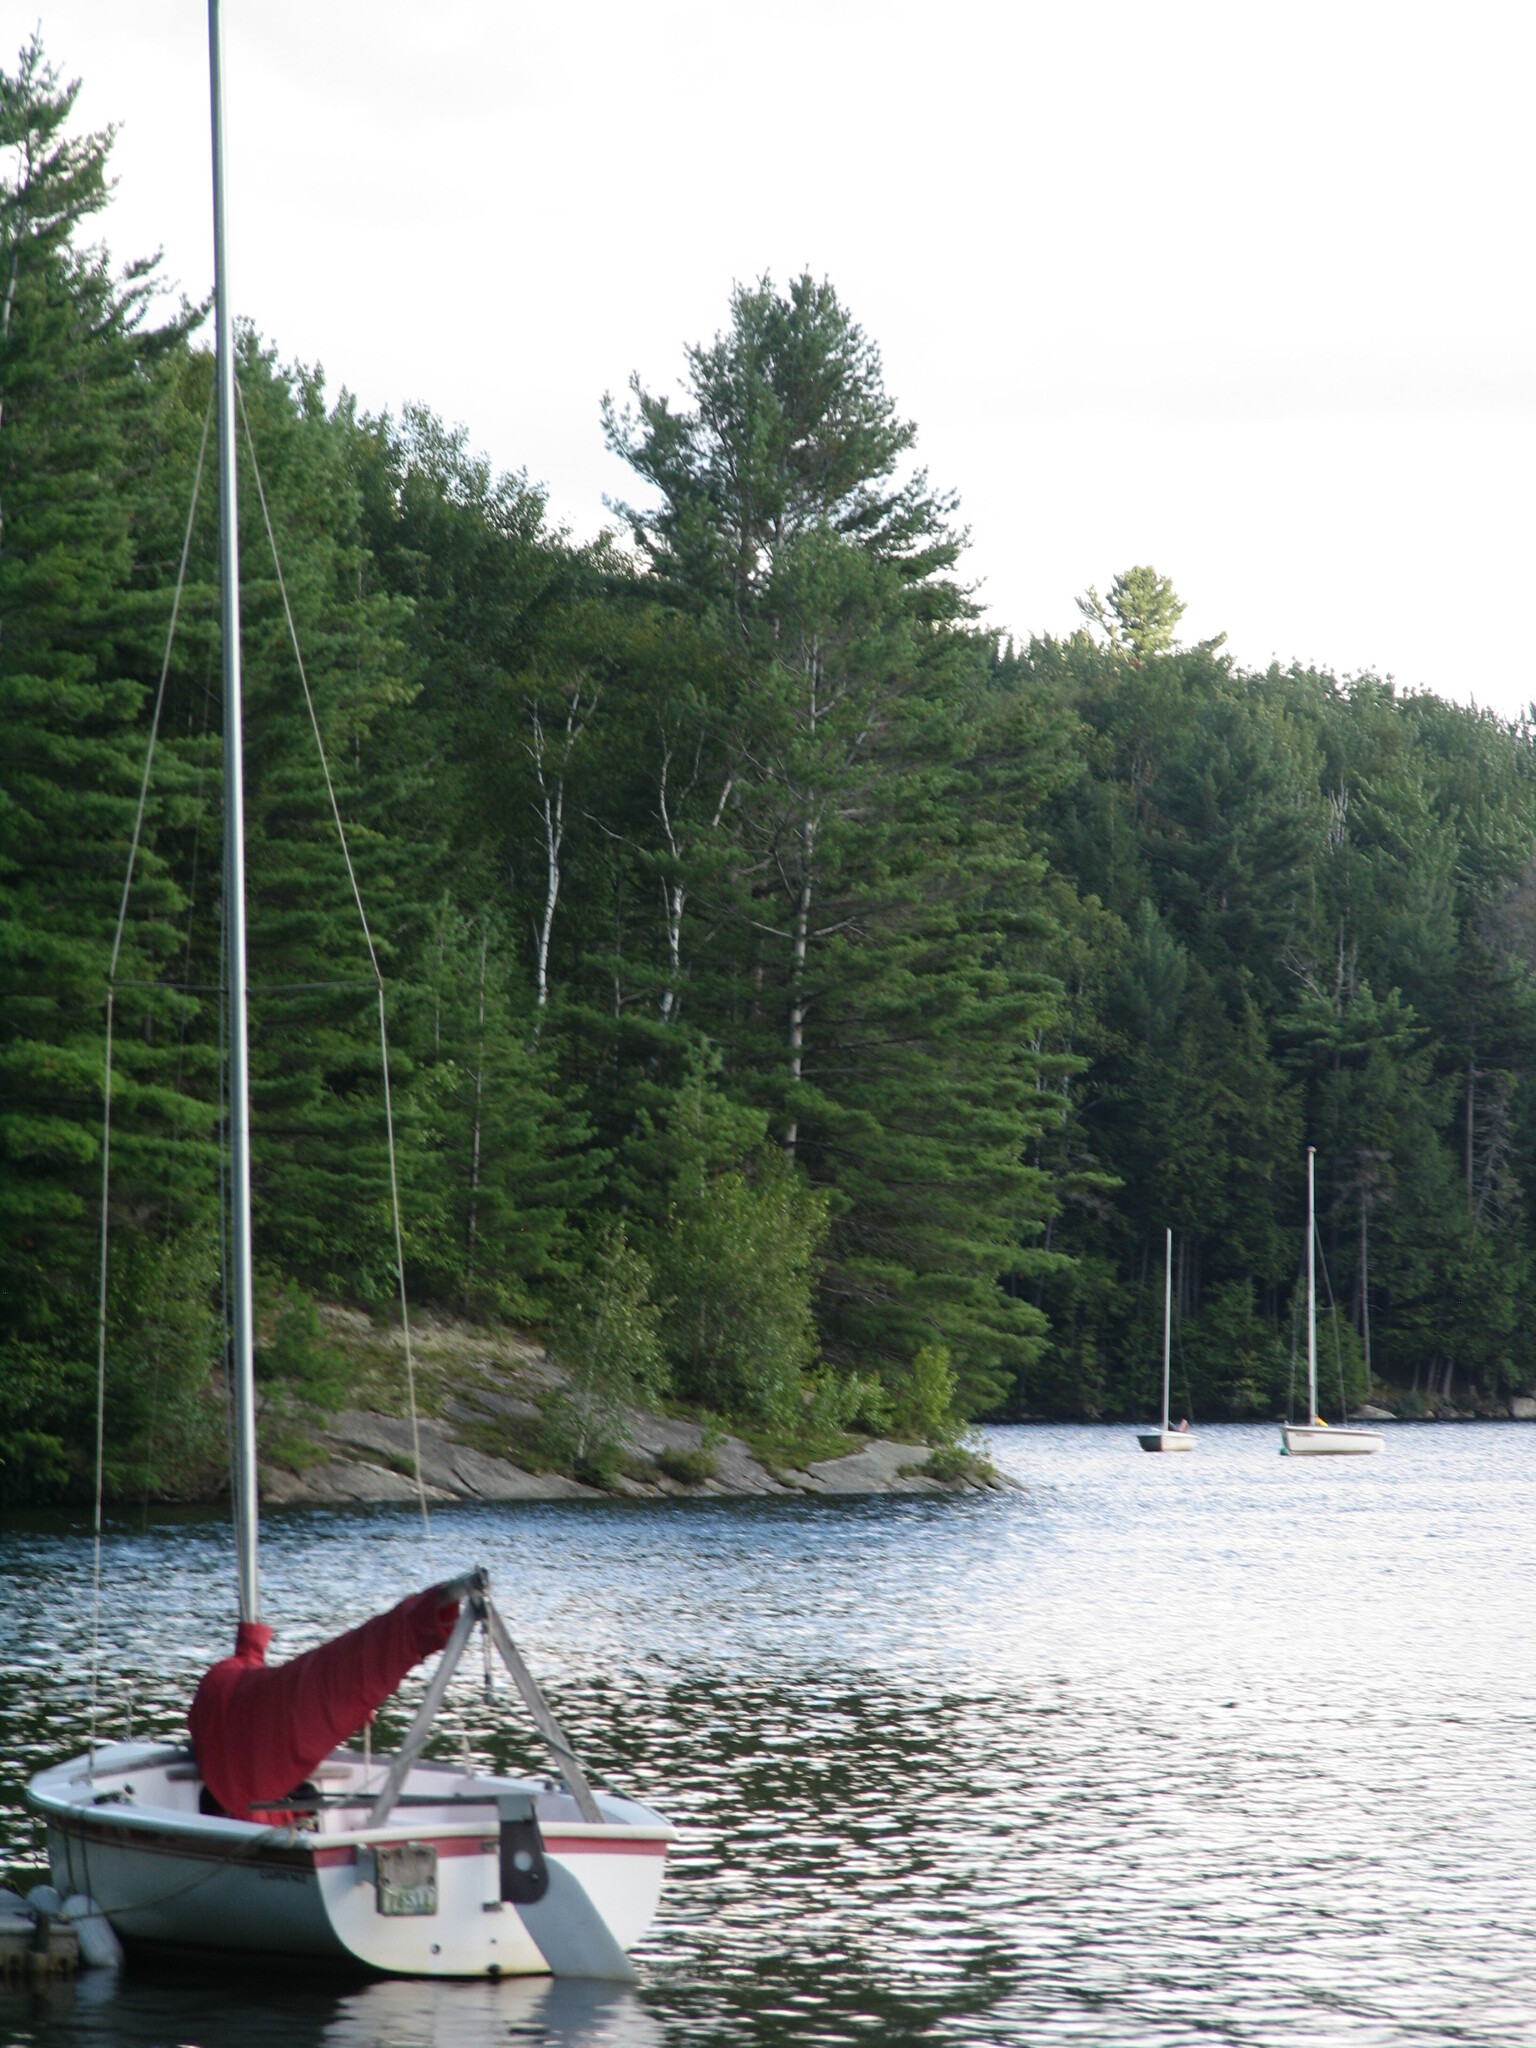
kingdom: Plantae
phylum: Tracheophyta
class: Pinopsida
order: Pinales
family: Pinaceae
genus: Pinus
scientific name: Pinus strobus
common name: Weymouth pine
